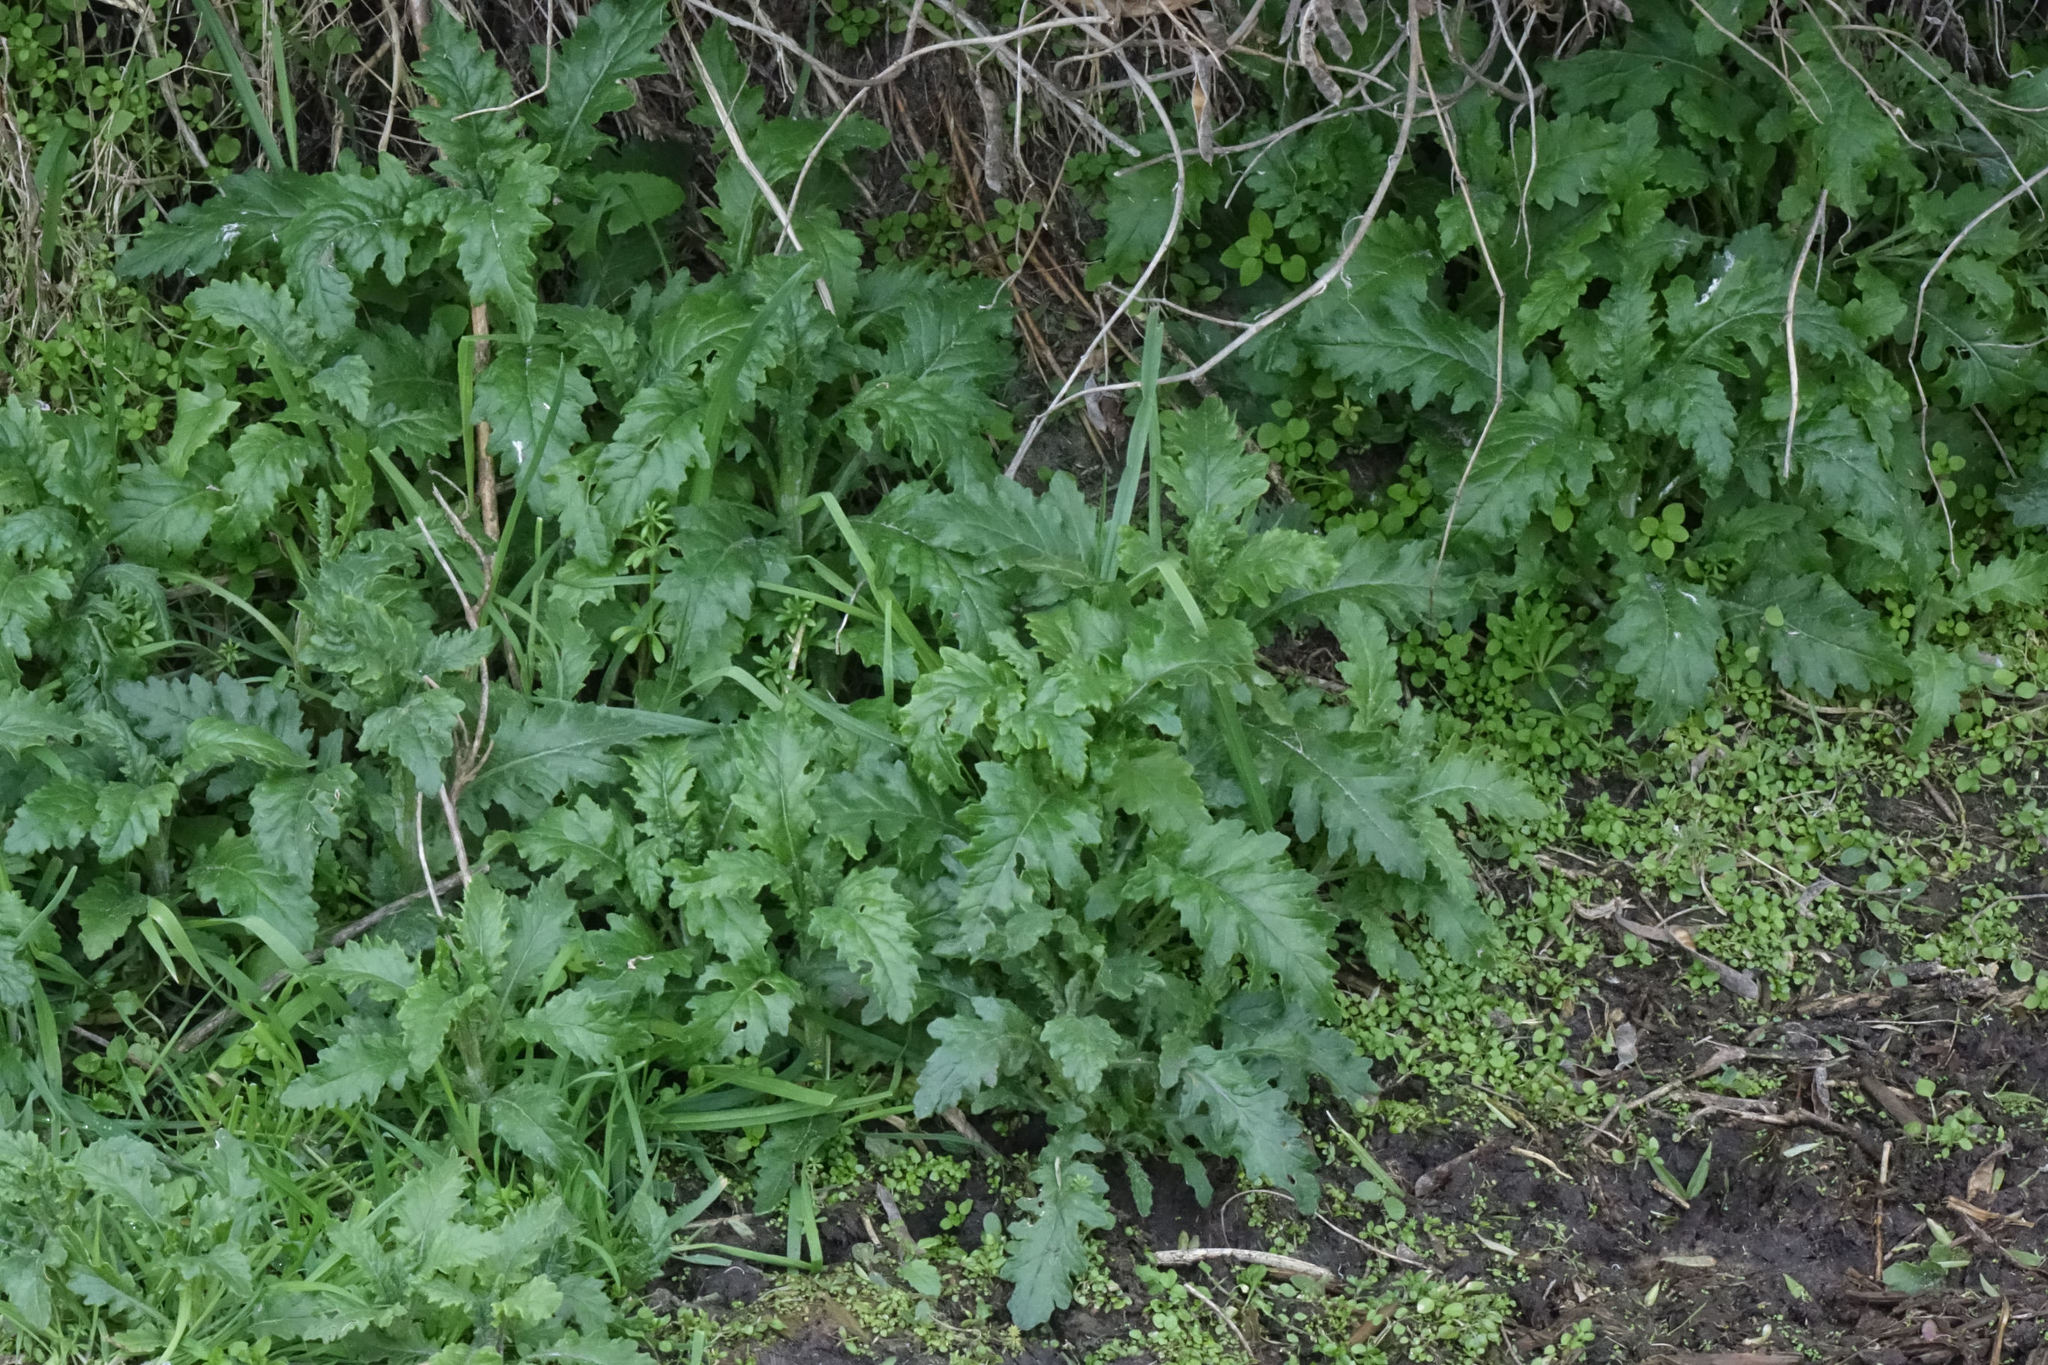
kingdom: Plantae
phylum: Tracheophyta
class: Magnoliopsida
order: Asterales
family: Asteraceae
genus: Senecio
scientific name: Senecio biserratus
